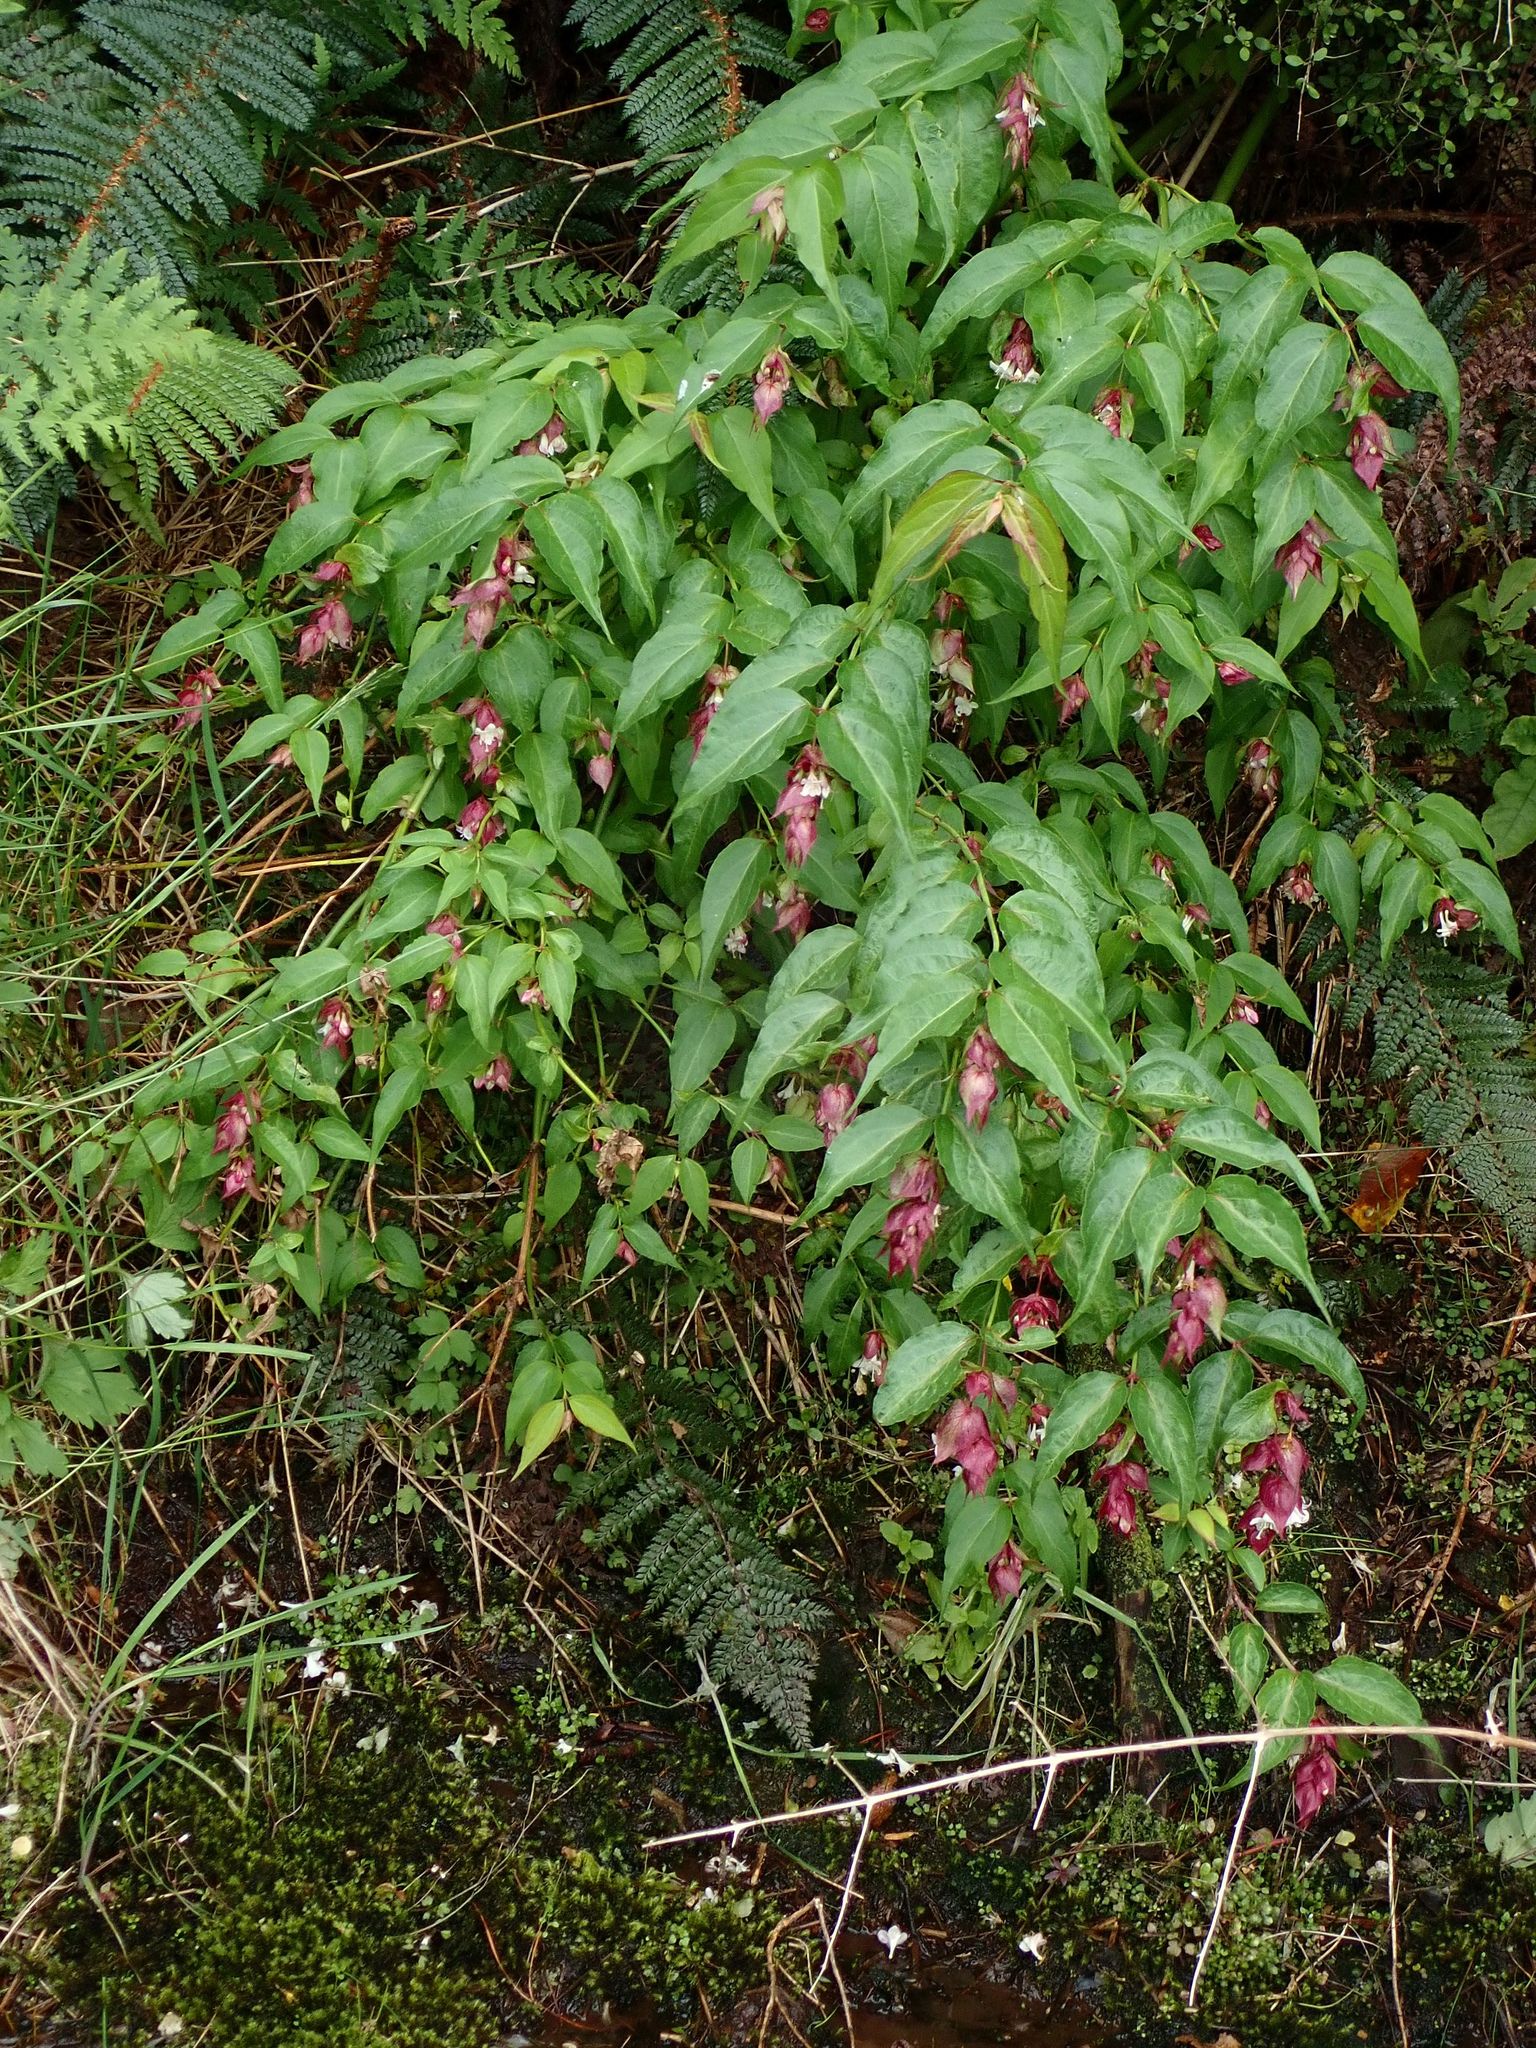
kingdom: Plantae
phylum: Tracheophyta
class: Magnoliopsida
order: Dipsacales
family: Caprifoliaceae
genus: Leycesteria
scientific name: Leycesteria formosa
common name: Himalayan honeysuckle
